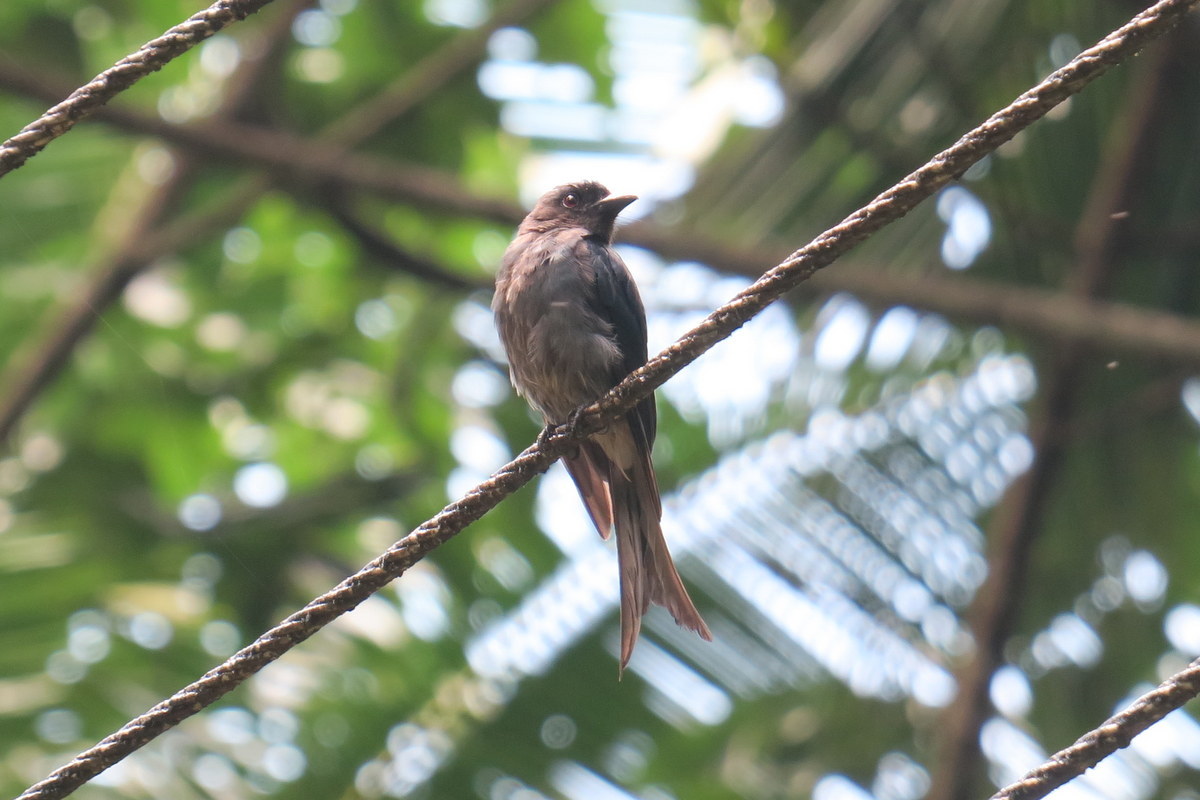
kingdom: Animalia
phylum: Chordata
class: Aves
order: Passeriformes
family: Dicruridae
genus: Dicrurus
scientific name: Dicrurus caerulescens
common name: White-bellied drongo
